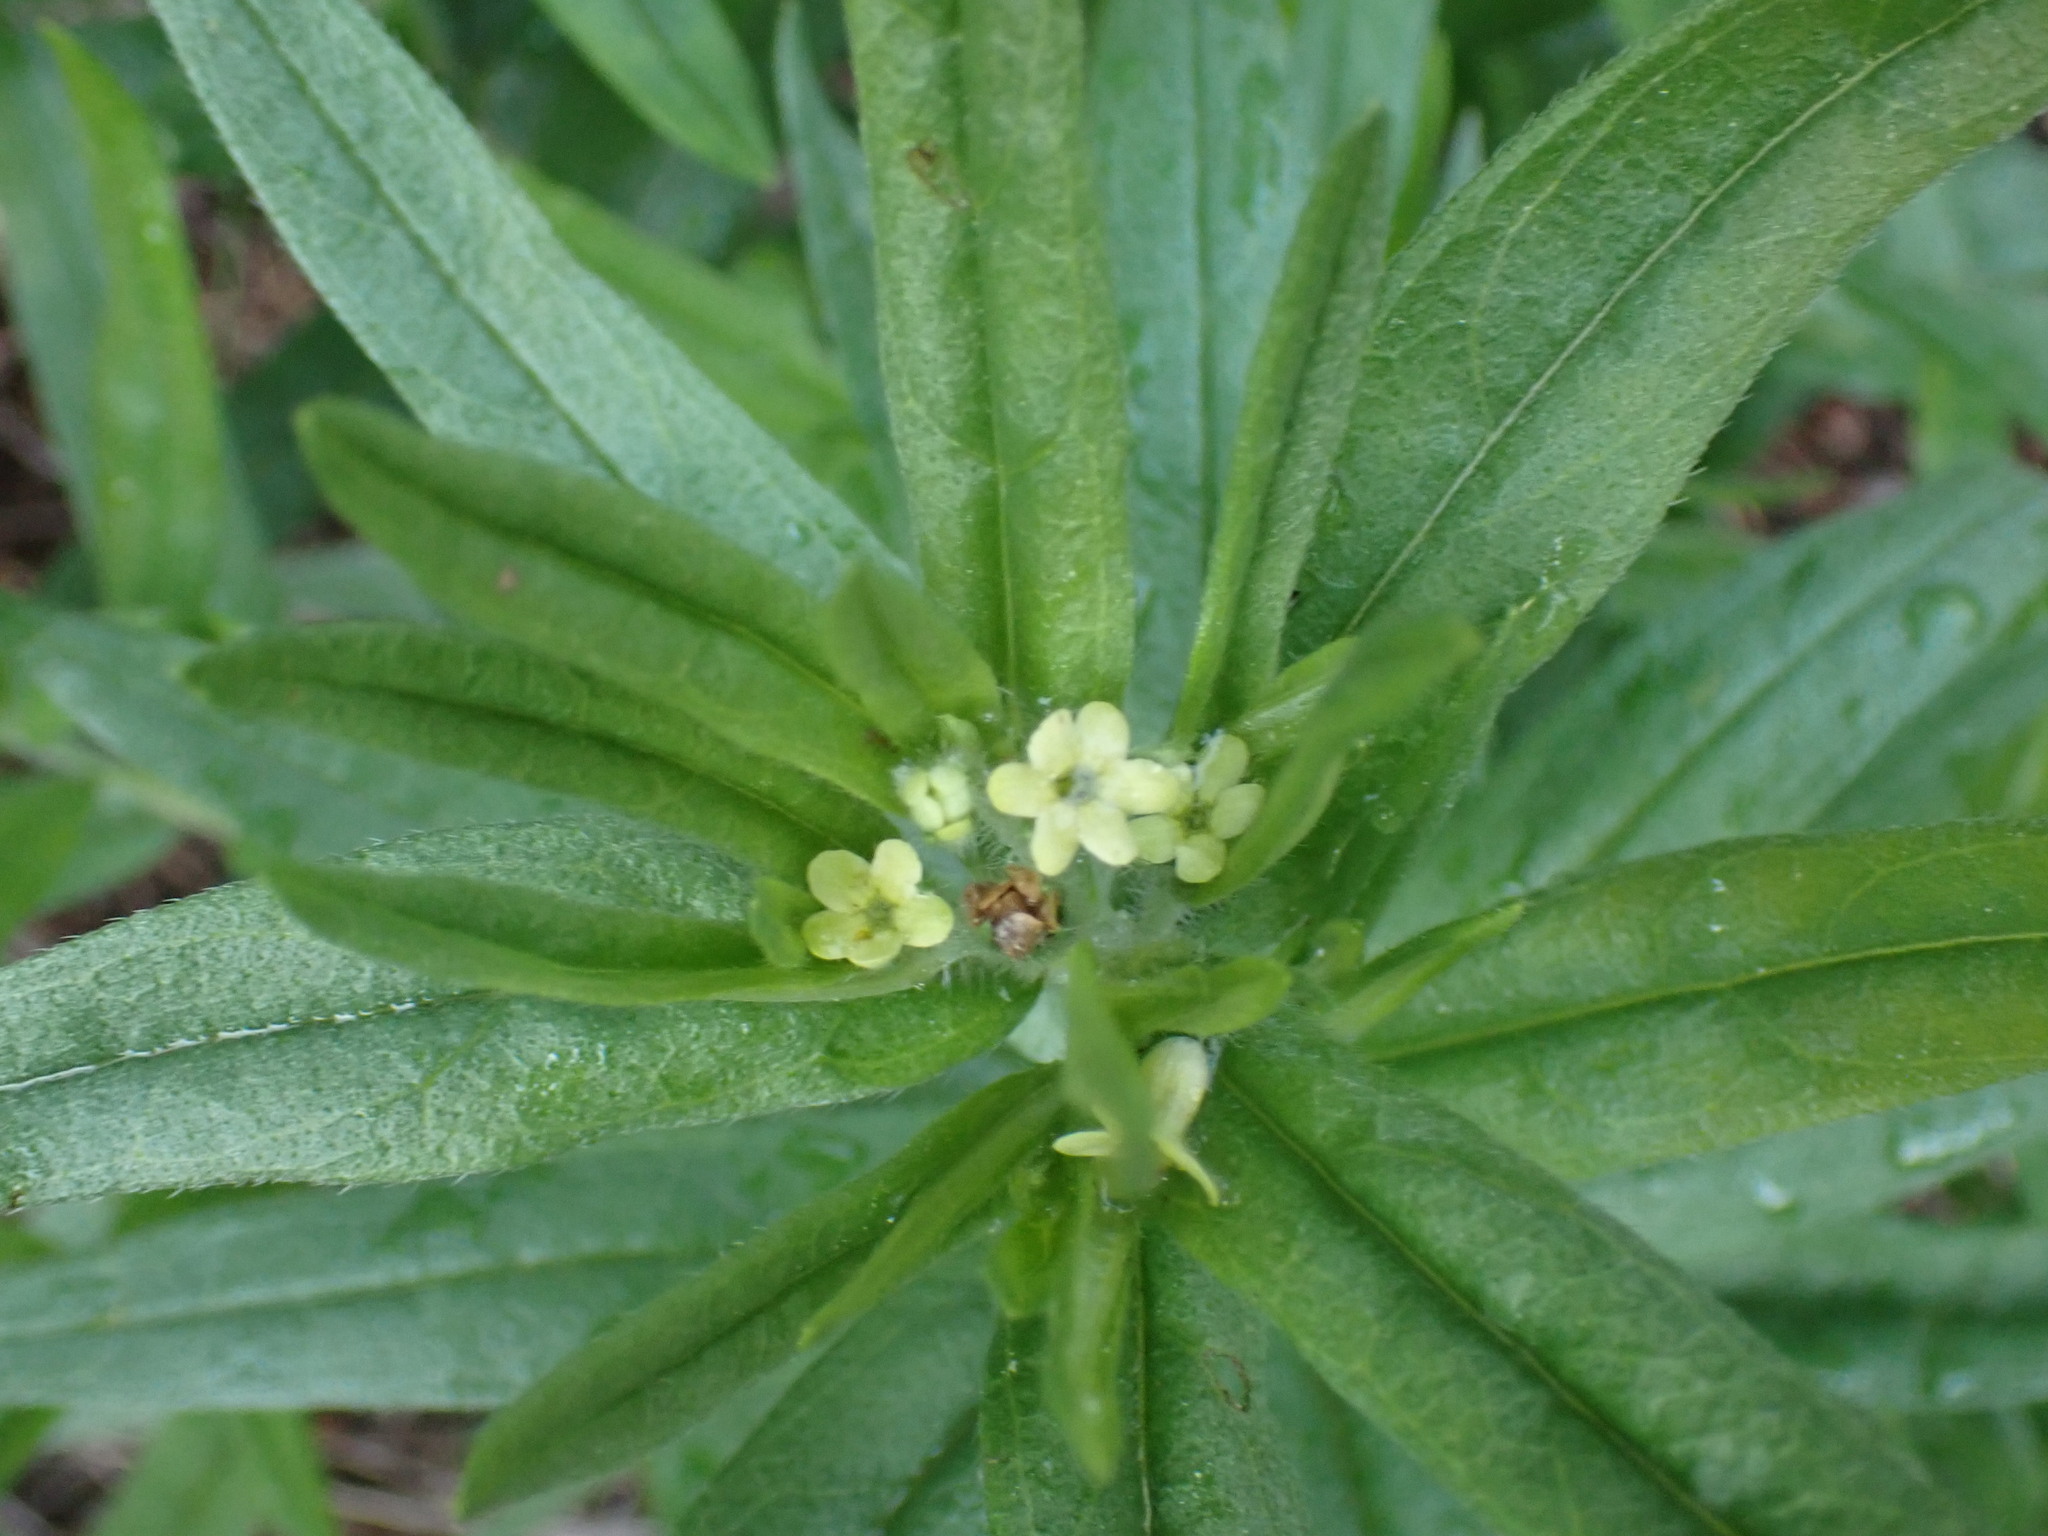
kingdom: Plantae
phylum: Tracheophyta
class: Magnoliopsida
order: Boraginales
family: Boraginaceae
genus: Lithospermum
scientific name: Lithospermum ruderale
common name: Western gromwell
